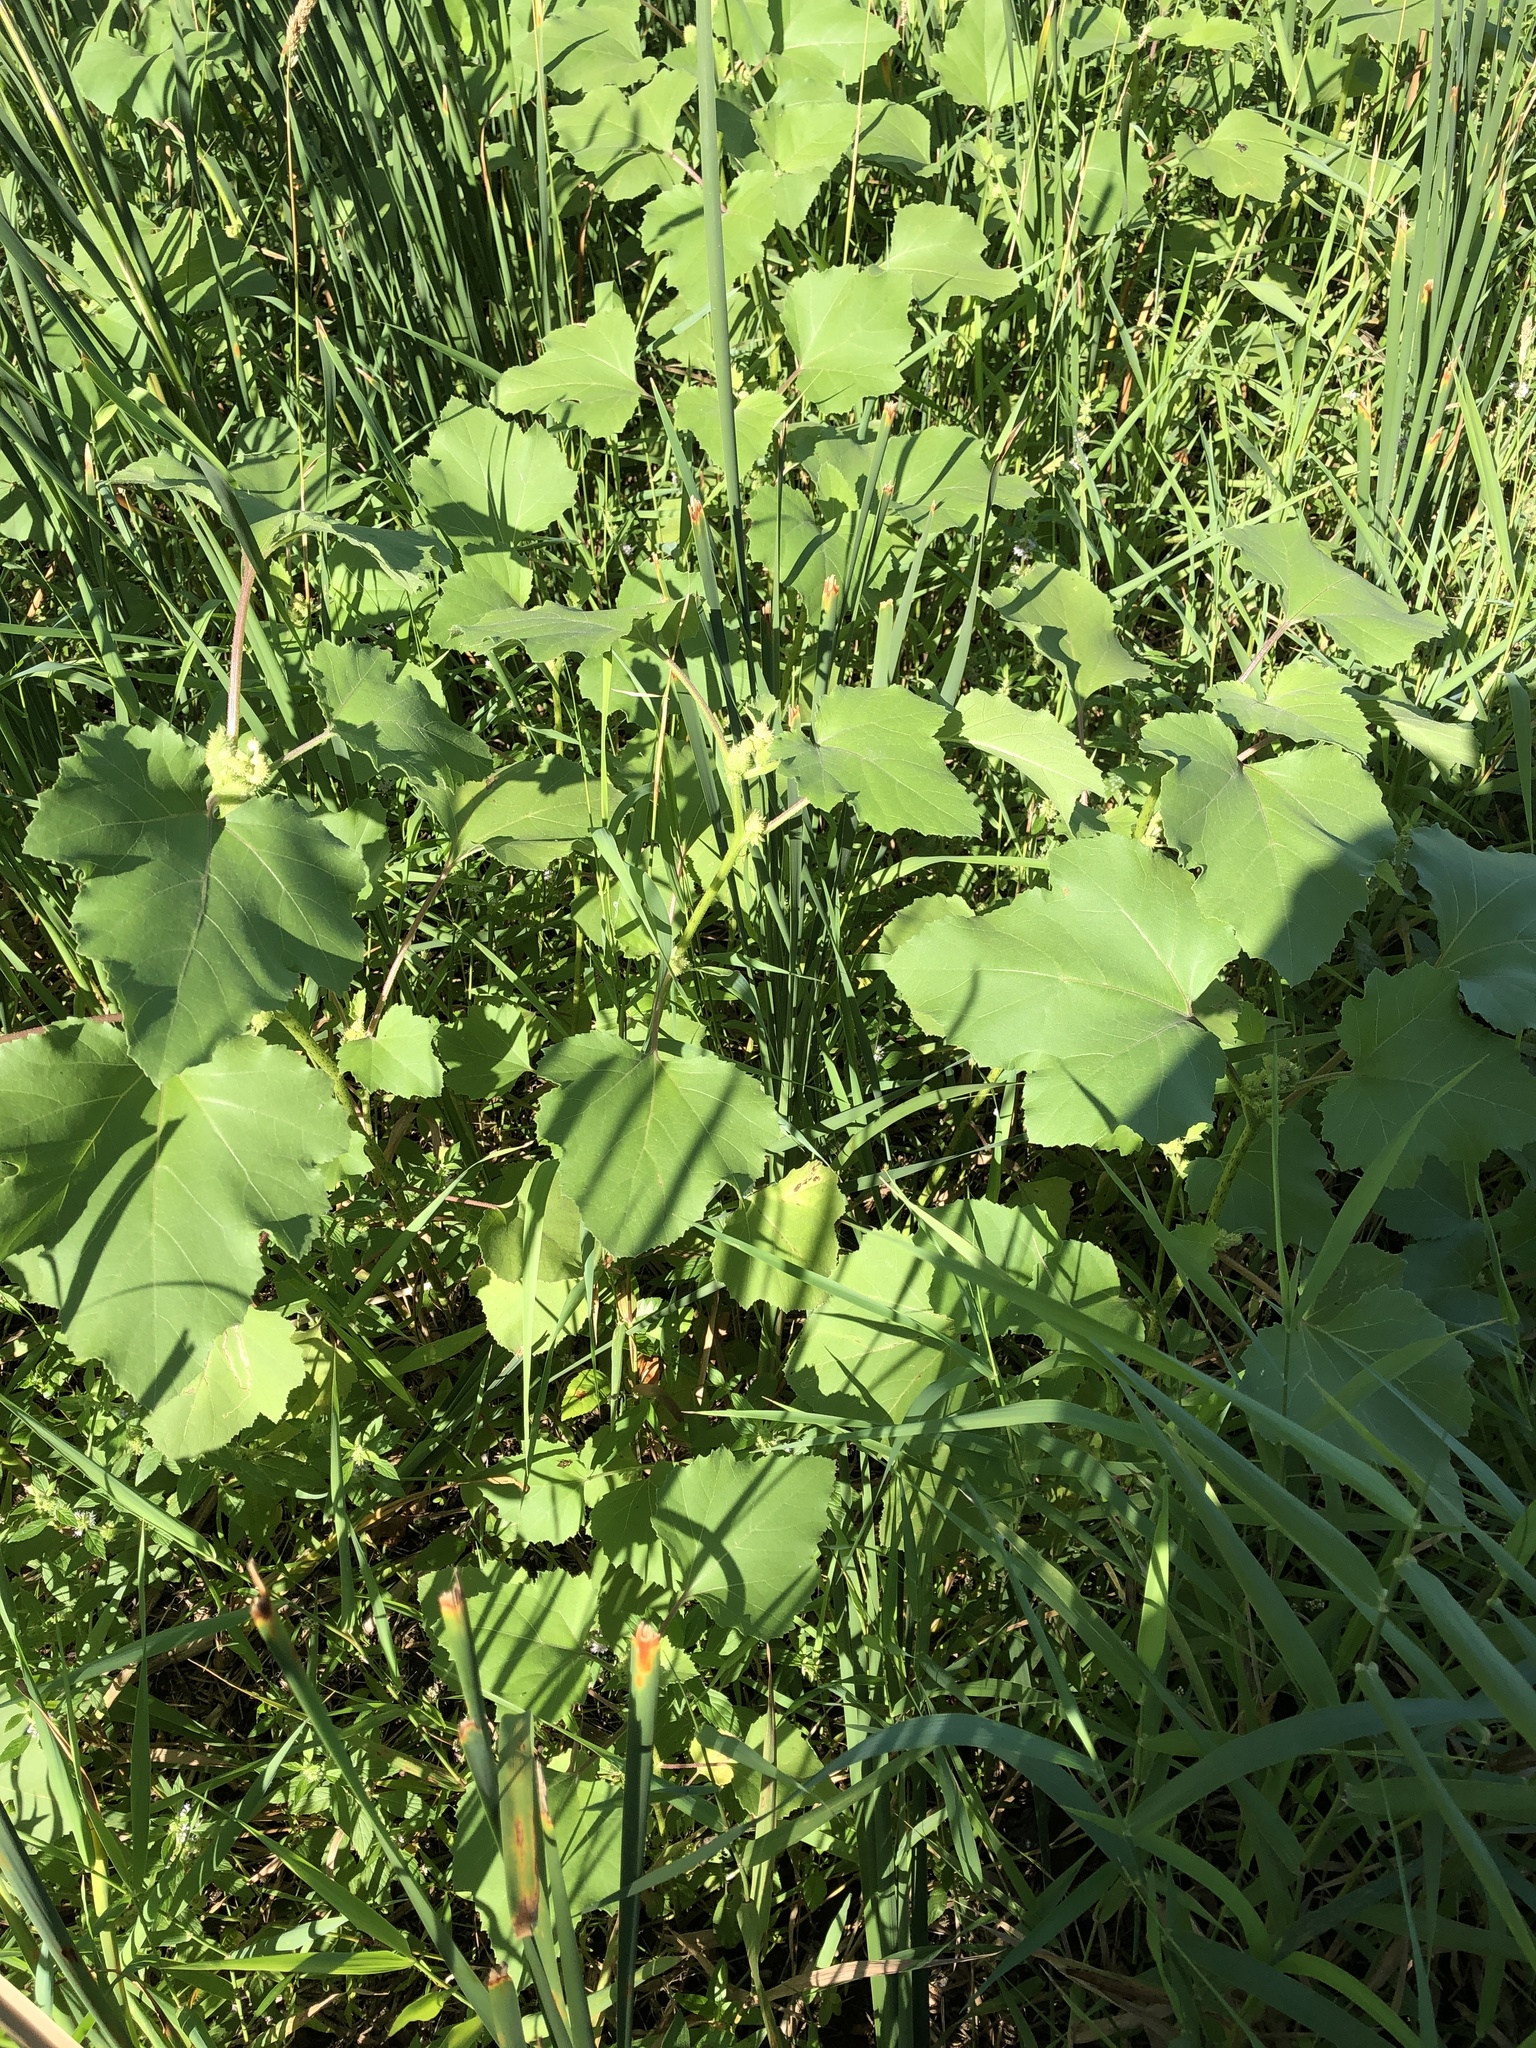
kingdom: Plantae
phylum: Tracheophyta
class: Magnoliopsida
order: Asterales
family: Asteraceae
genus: Xanthium
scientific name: Xanthium strumarium
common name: Rough cocklebur
